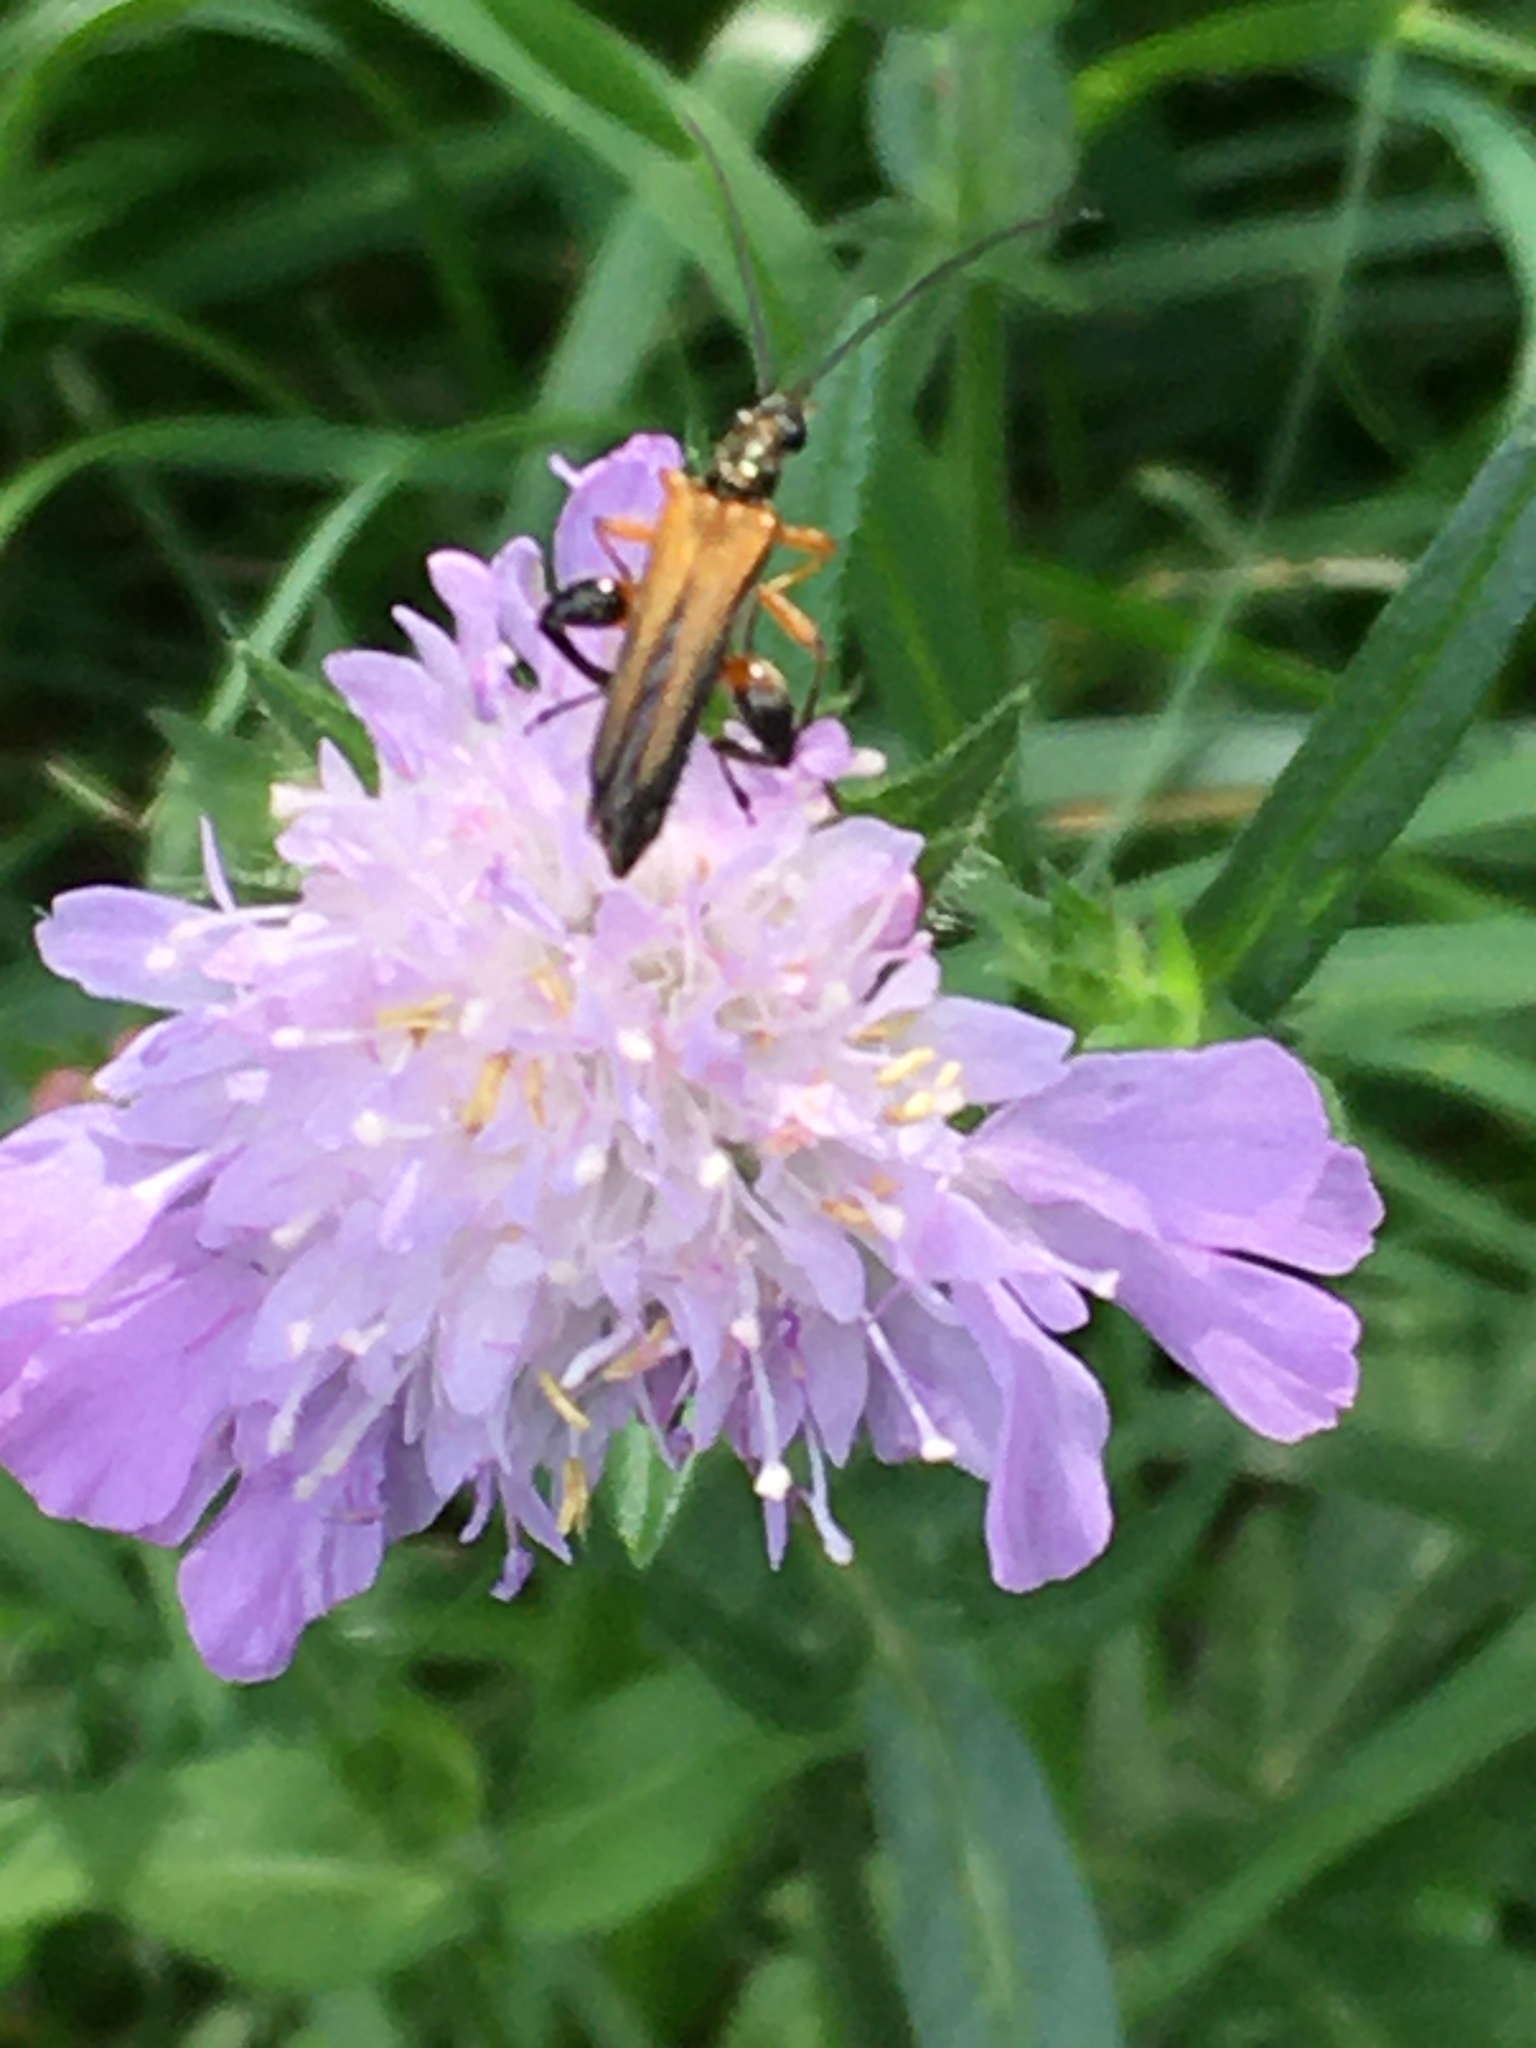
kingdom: Animalia
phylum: Arthropoda
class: Insecta
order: Coleoptera
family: Oedemeridae
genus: Oedemera
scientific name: Oedemera podagrariae
